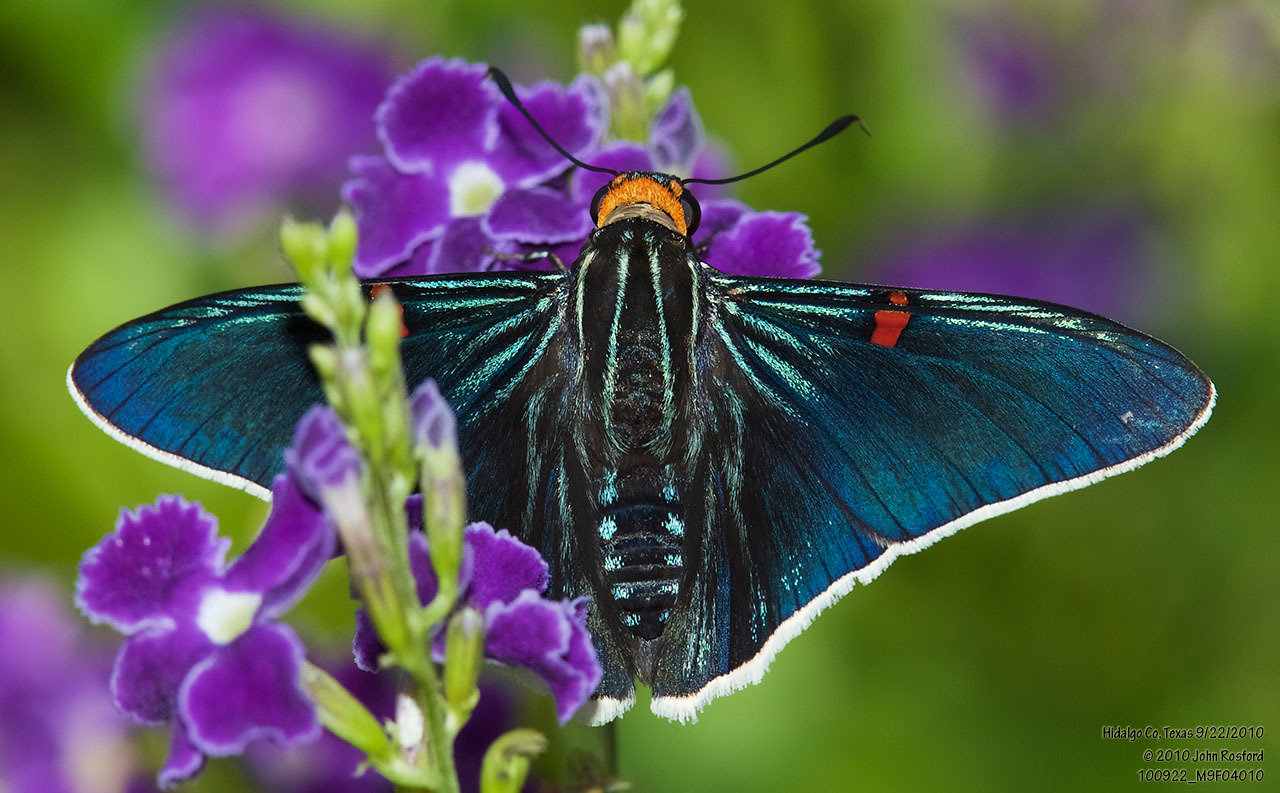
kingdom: Animalia
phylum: Arthropoda
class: Insecta
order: Lepidoptera
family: Hesperiidae
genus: Phocides
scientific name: Phocides lilea
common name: Guava skipper
